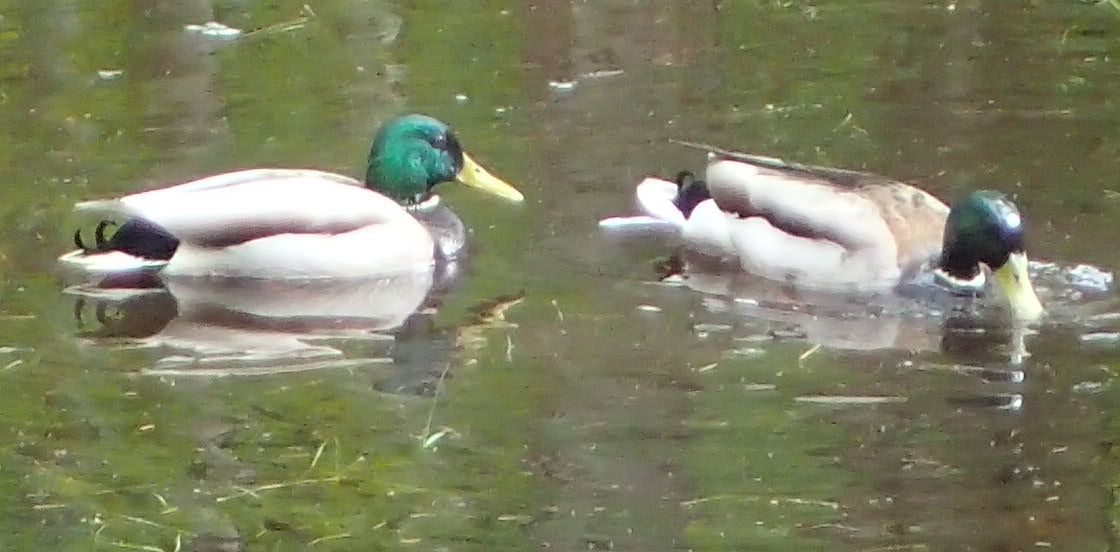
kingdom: Animalia
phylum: Chordata
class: Aves
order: Anseriformes
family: Anatidae
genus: Anas
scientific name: Anas platyrhynchos
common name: Mallard
